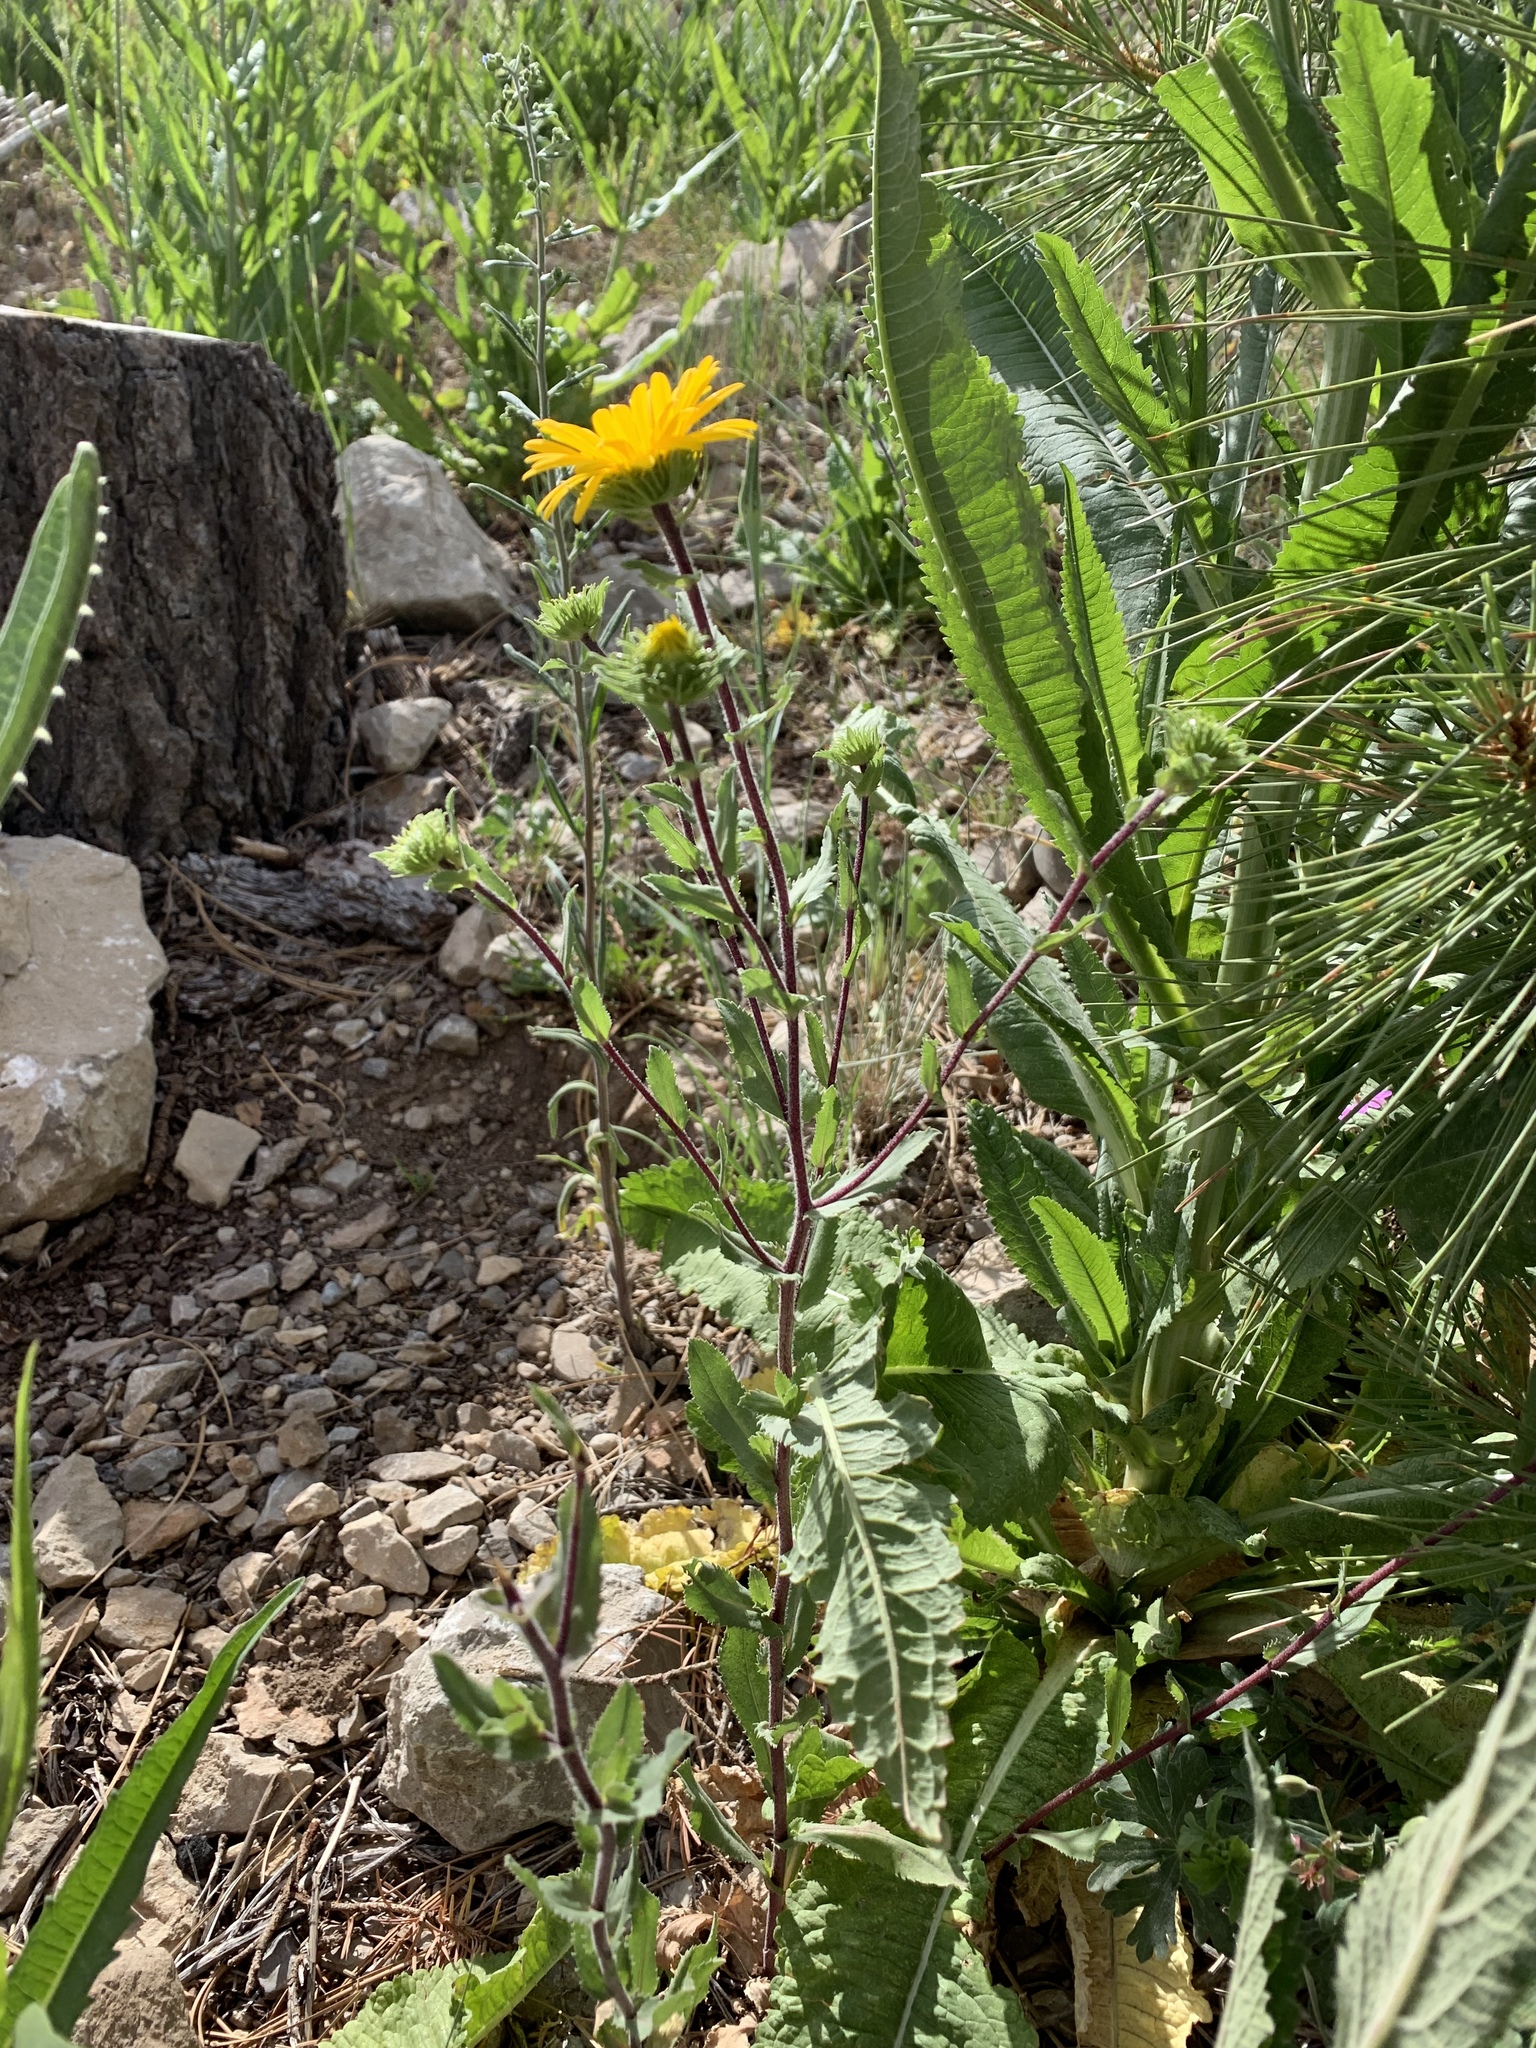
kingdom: Plantae
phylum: Tracheophyta
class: Magnoliopsida
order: Asterales
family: Asteraceae
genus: Grindelia
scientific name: Grindelia scabra
